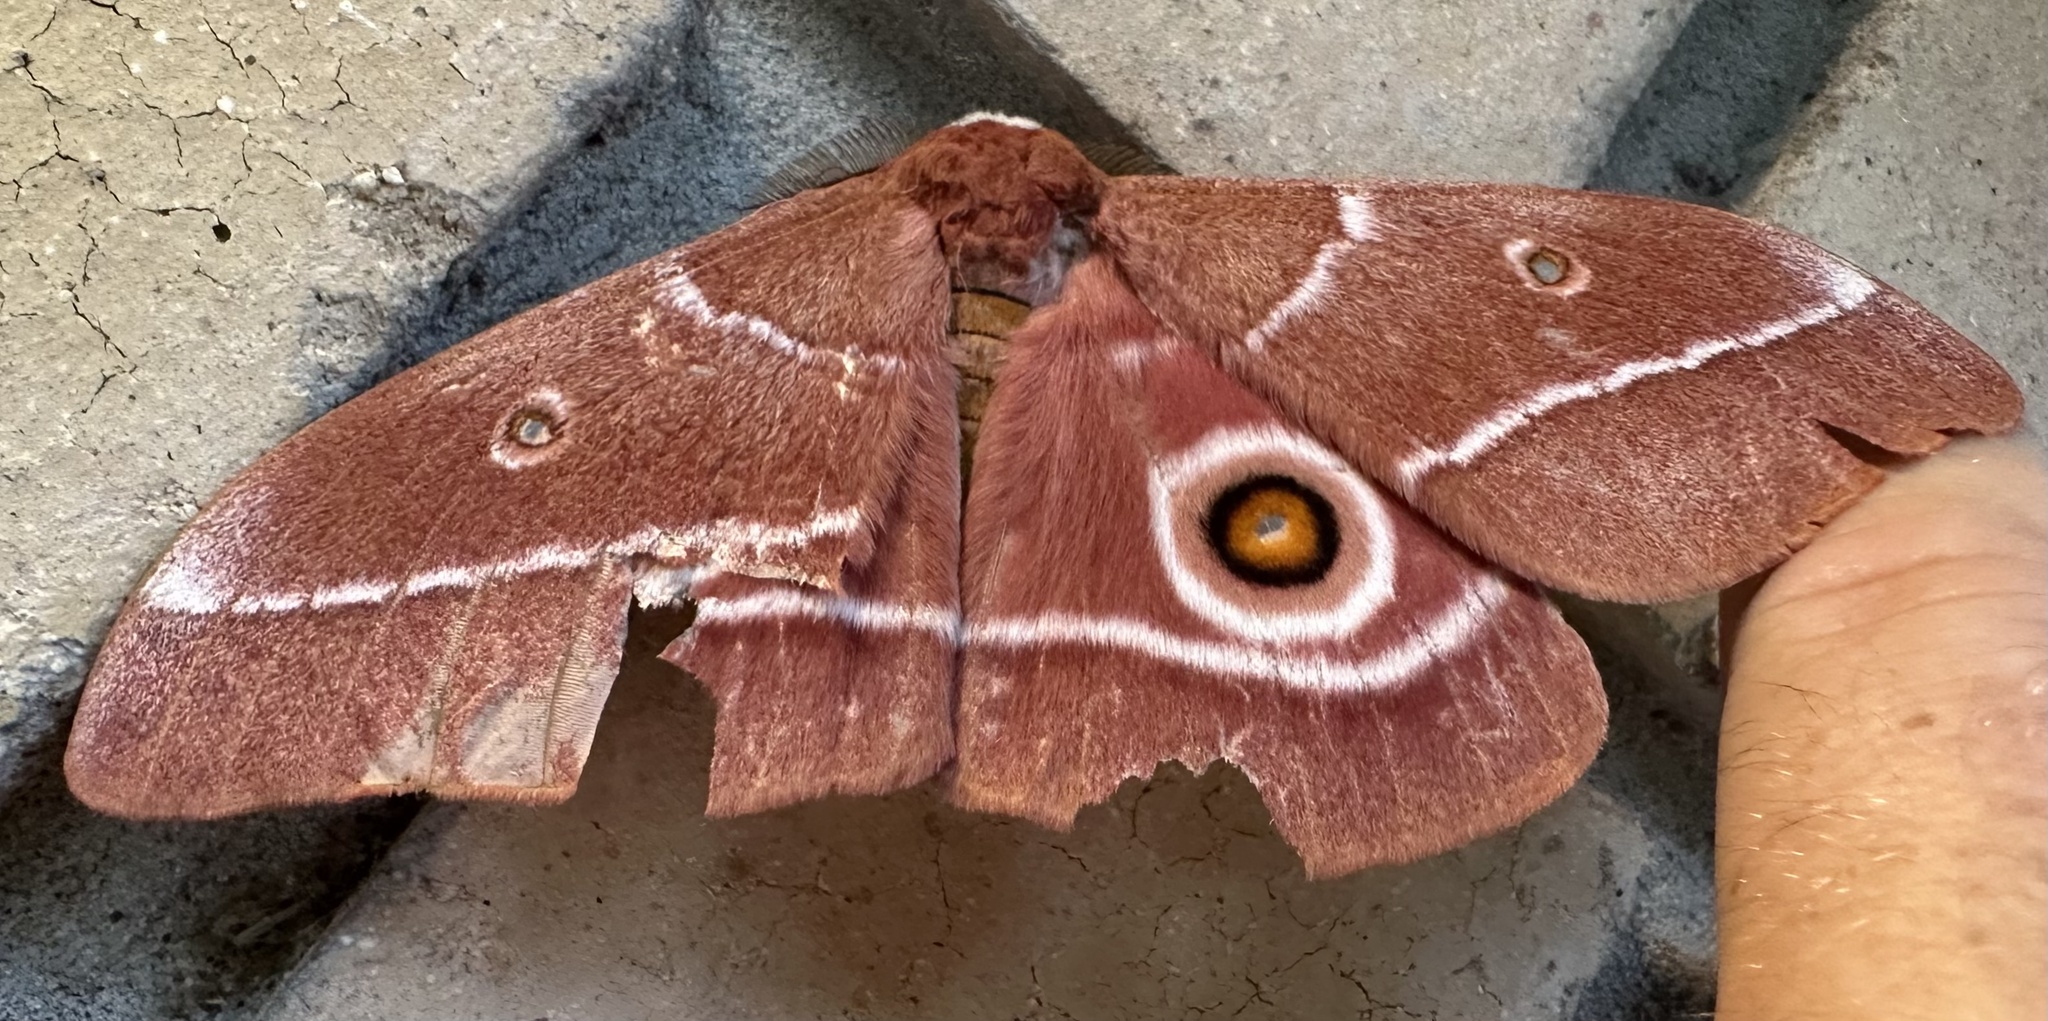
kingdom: Animalia
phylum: Arthropoda
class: Insecta
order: Lepidoptera
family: Saturniidae
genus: Gonimbrasia
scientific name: Gonimbrasia belina
